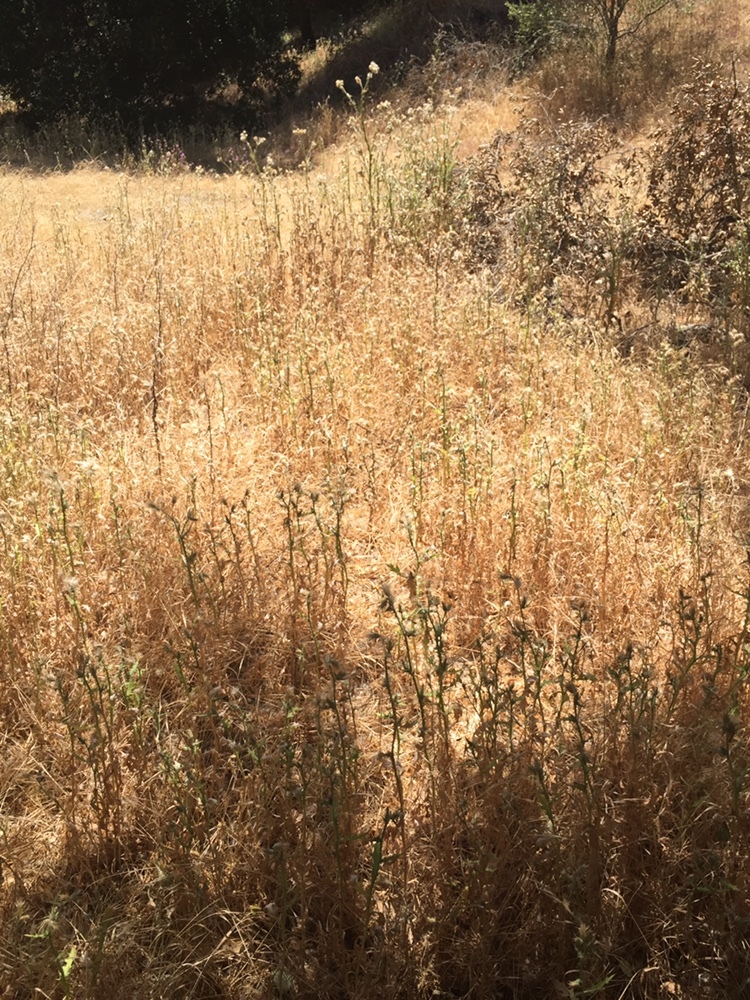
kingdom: Plantae
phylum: Tracheophyta
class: Magnoliopsida
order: Asterales
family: Asteraceae
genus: Carduus
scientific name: Carduus pycnocephalus
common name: Plymouth thistle
